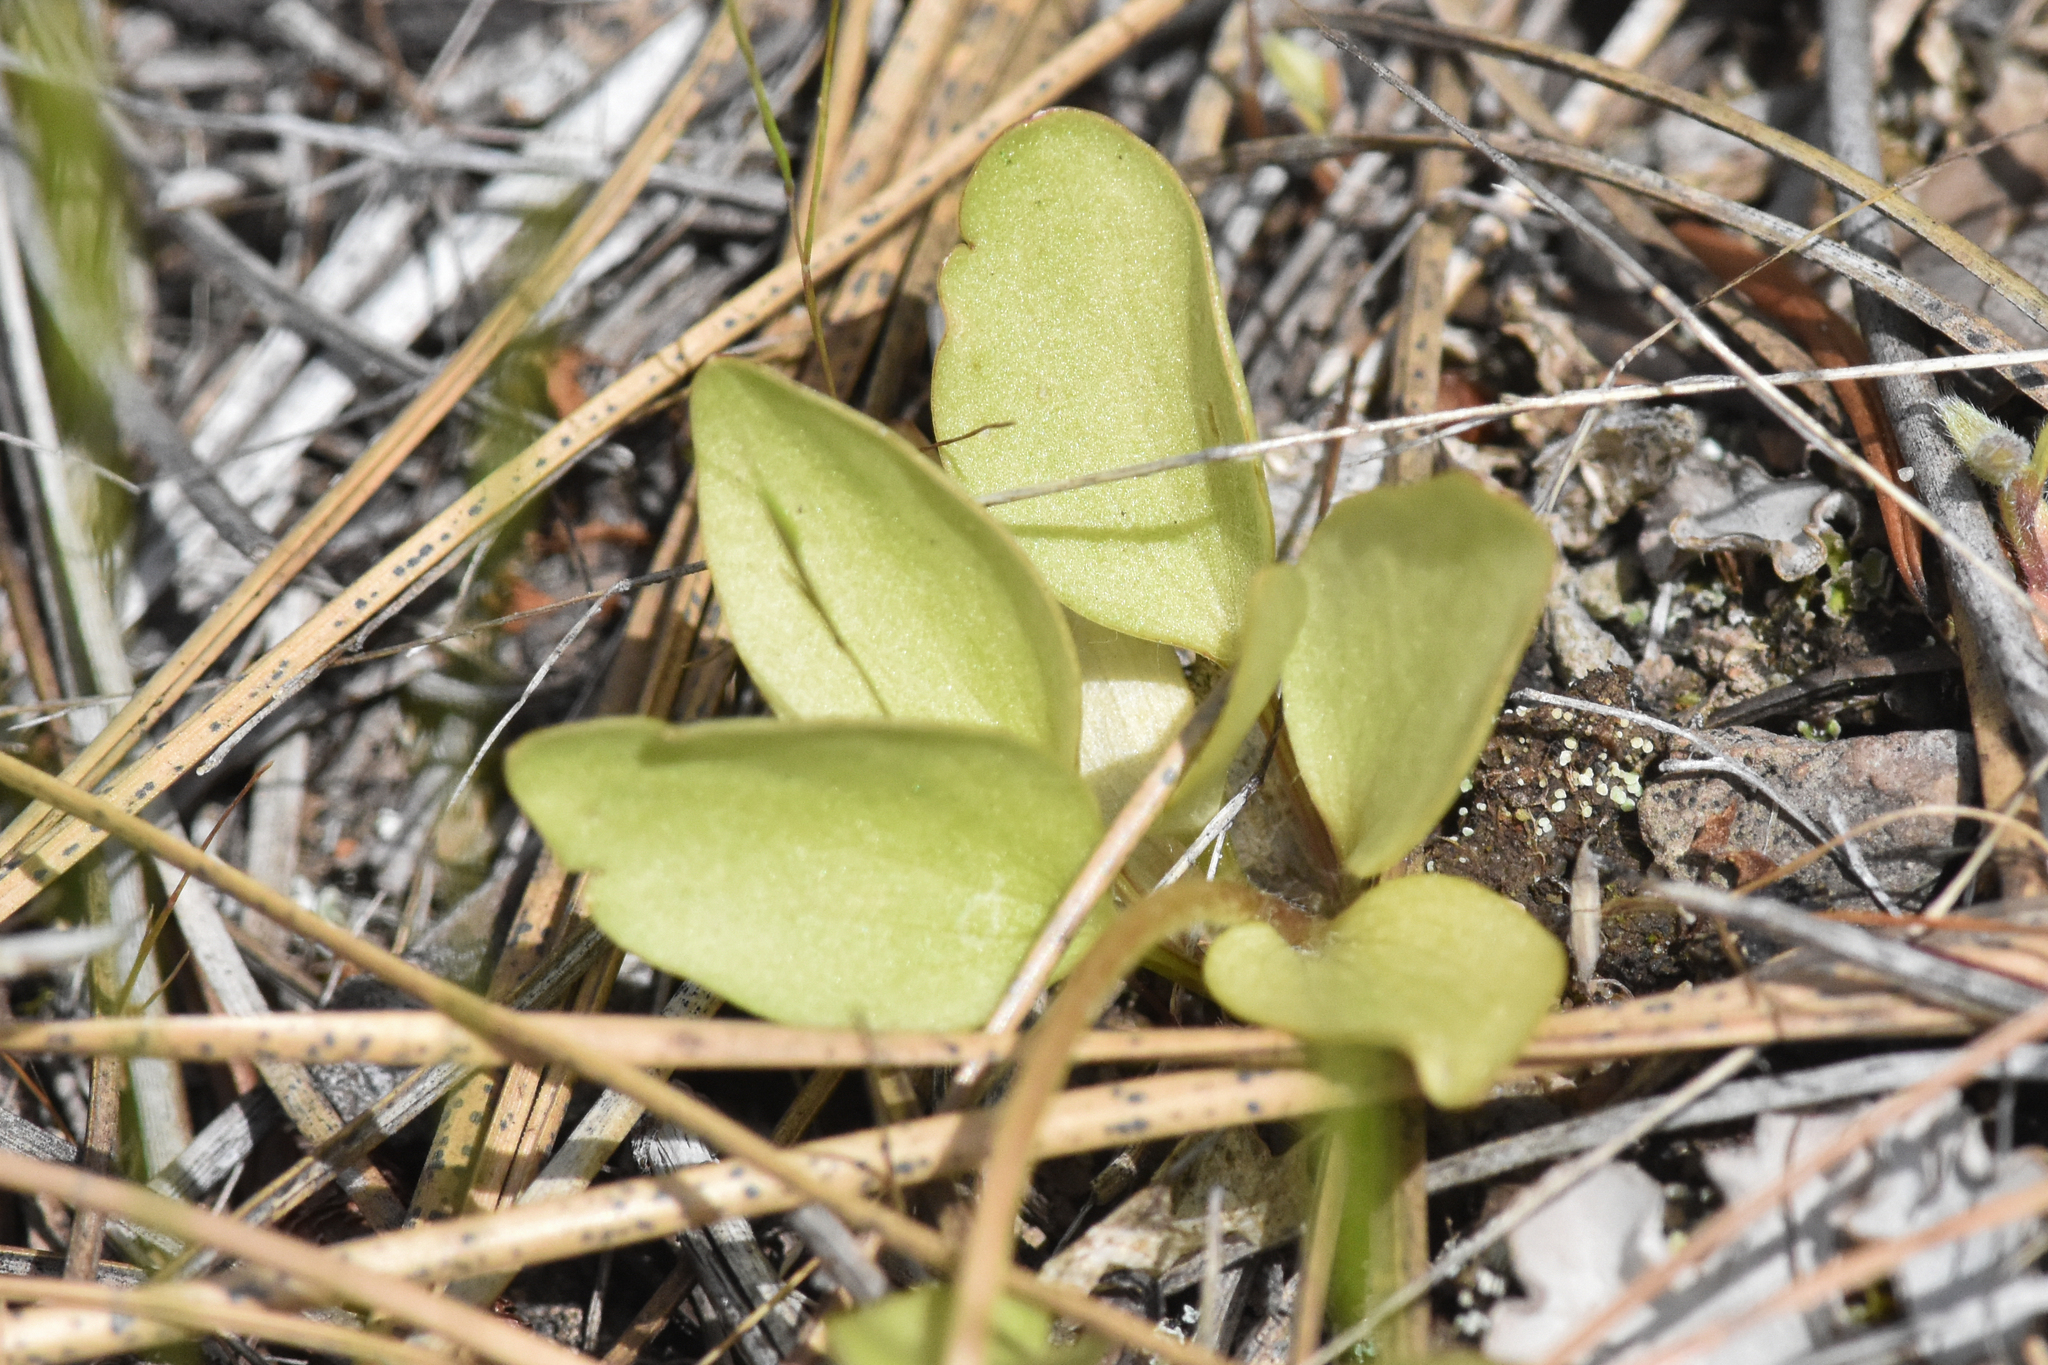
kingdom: Plantae
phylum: Tracheophyta
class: Magnoliopsida
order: Ranunculales
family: Ranunculaceae
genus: Ranunculus
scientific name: Ranunculus glaberrimus
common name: Sagebrush buttercup
